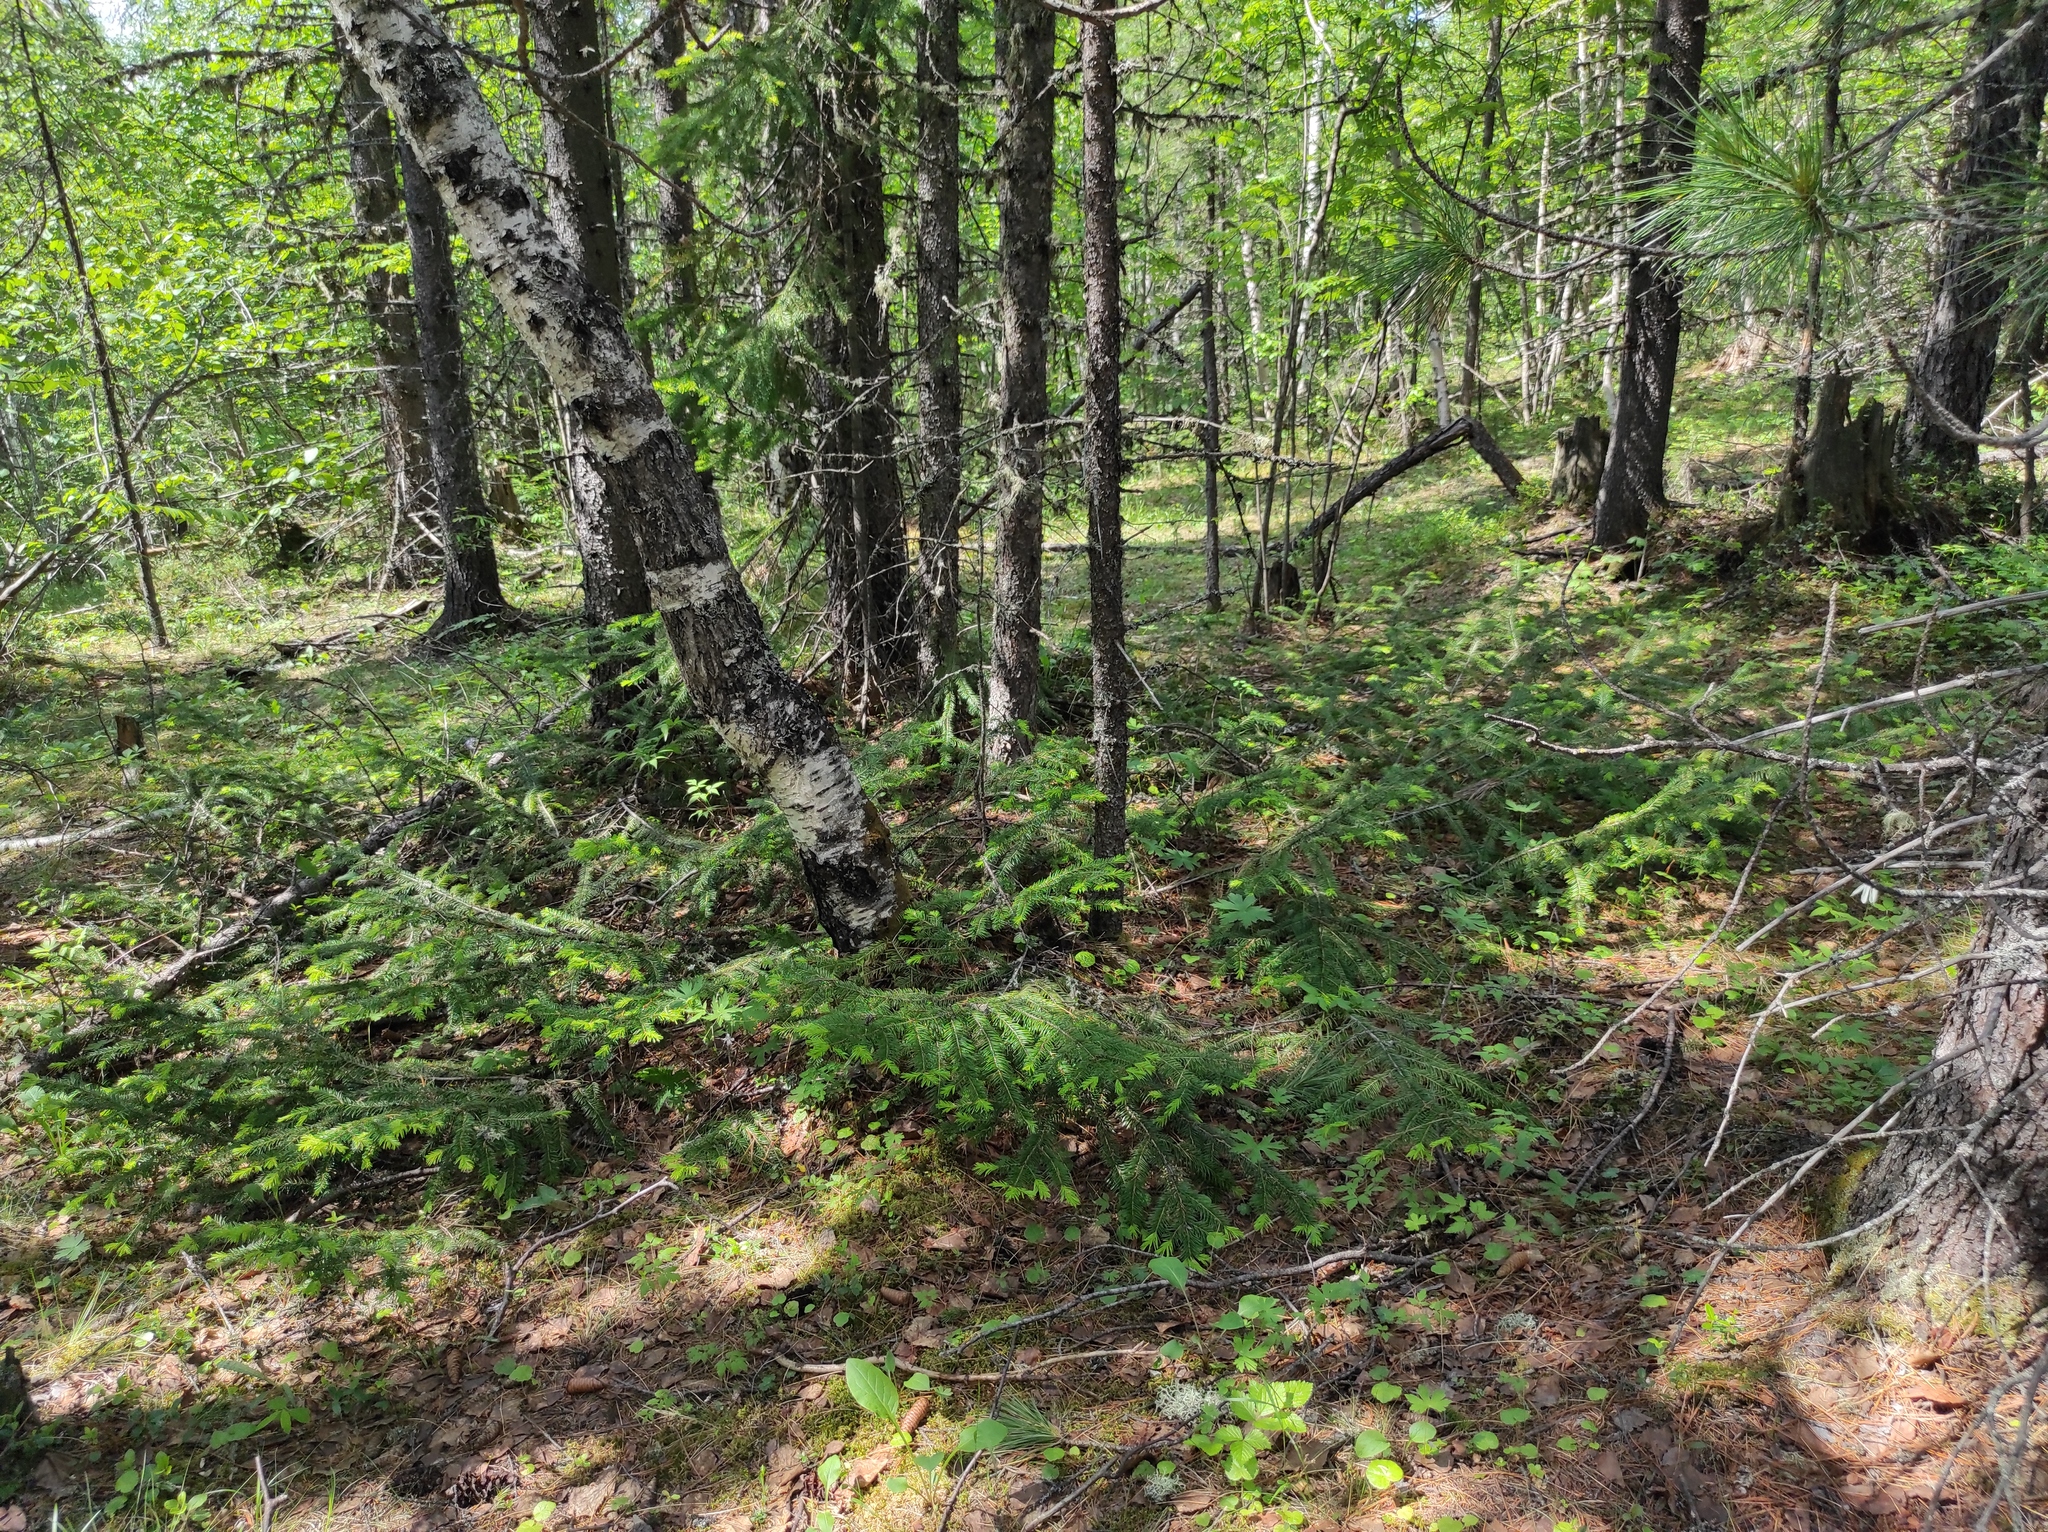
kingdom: Plantae
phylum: Tracheophyta
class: Pinopsida
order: Pinales
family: Pinaceae
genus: Picea
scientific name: Picea obovata
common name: Siberian spruce
